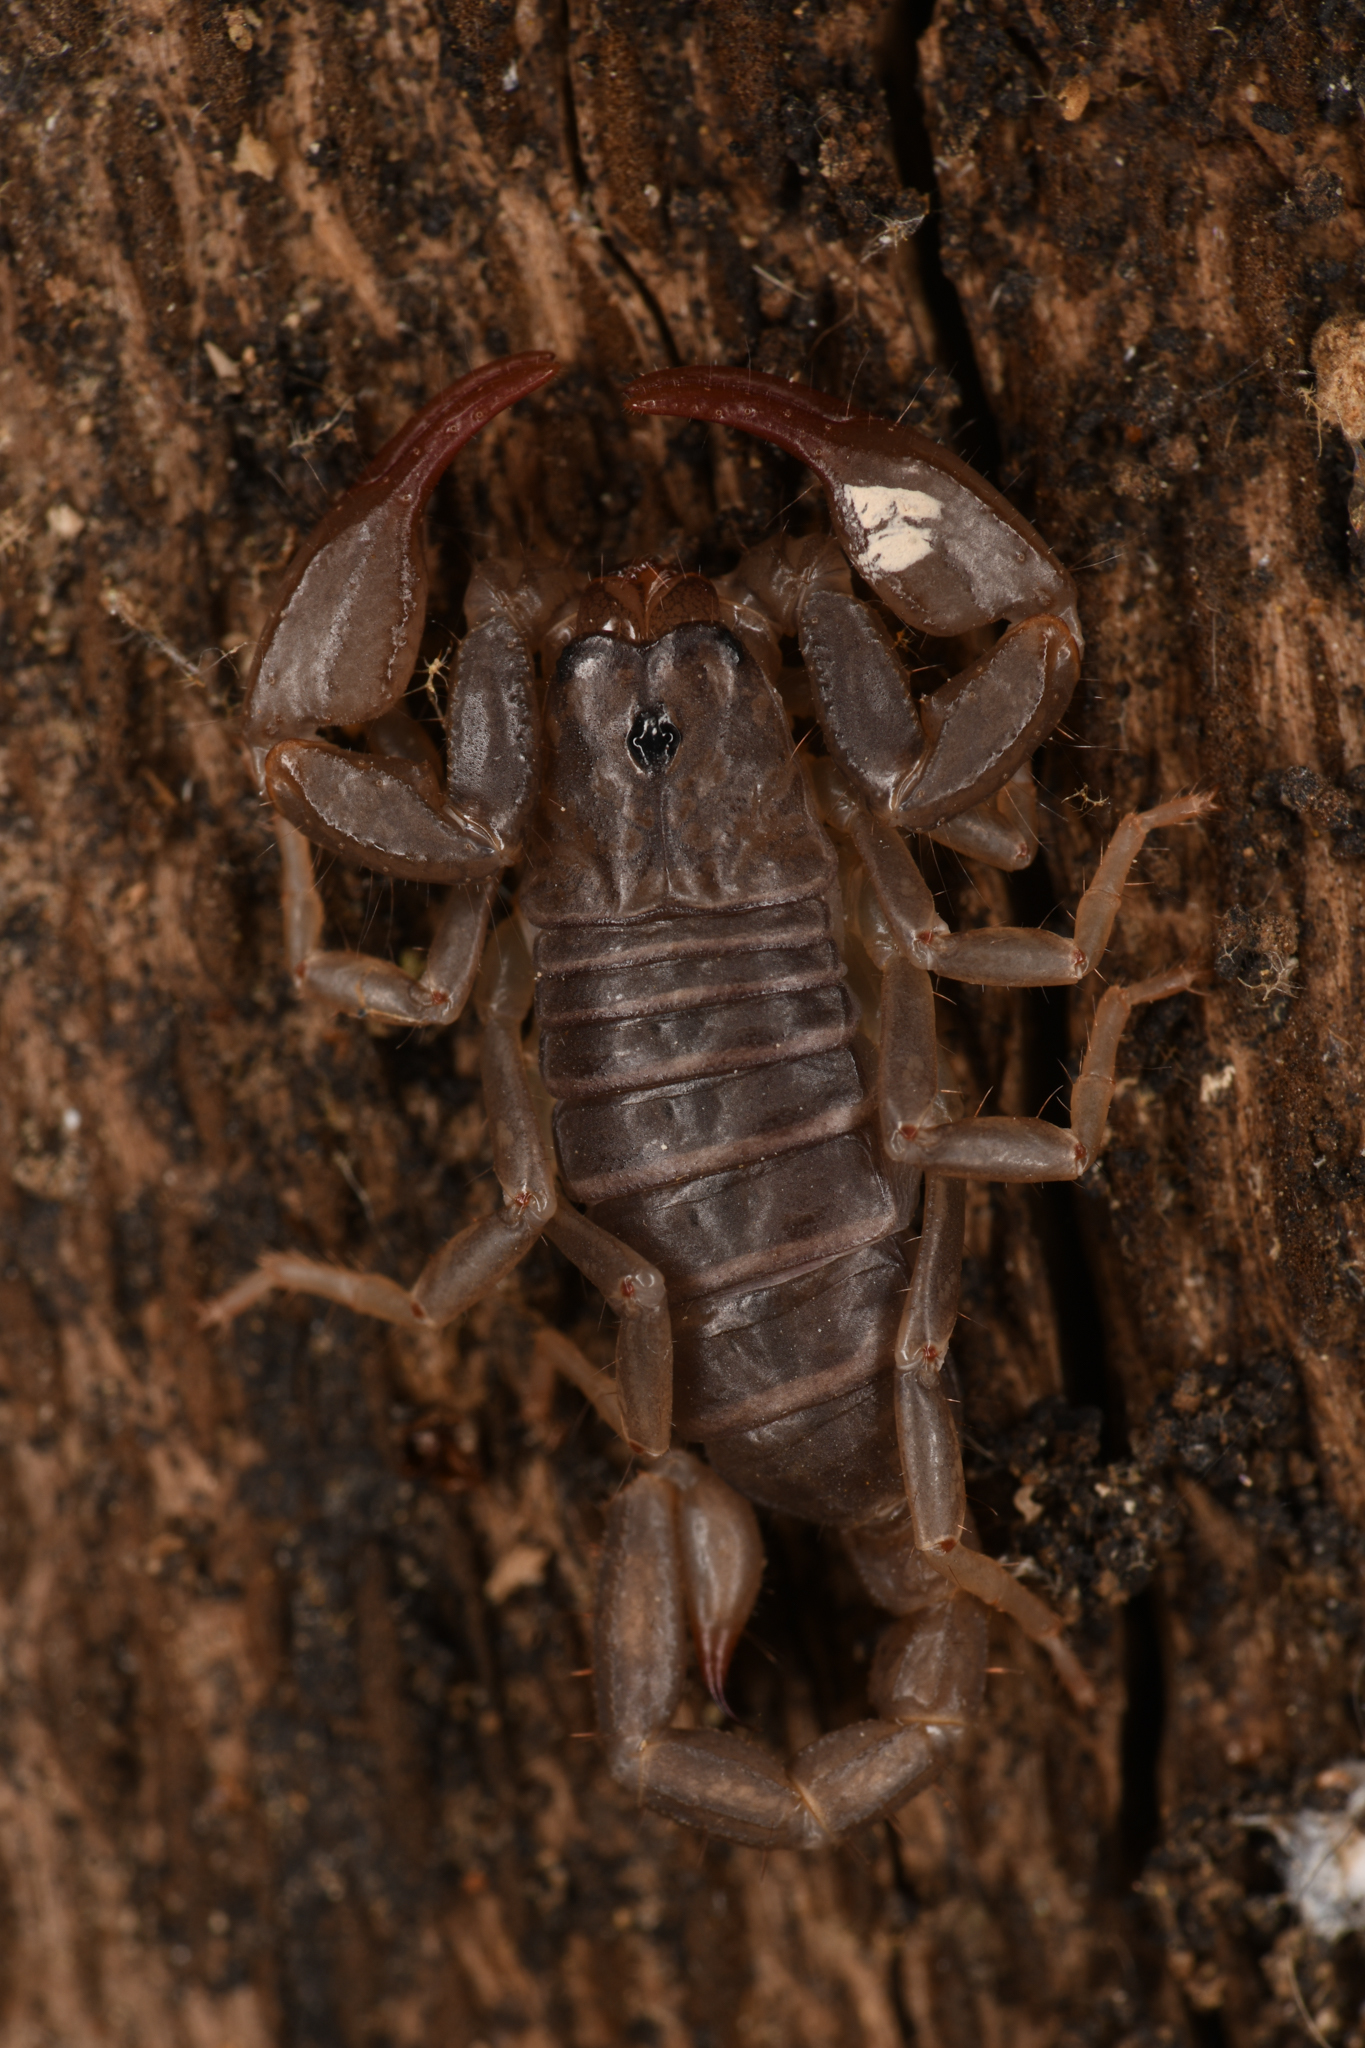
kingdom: Animalia
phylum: Arthropoda
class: Arachnida
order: Scorpiones
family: Chactidae
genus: Uroctonus
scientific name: Uroctonus mordax
